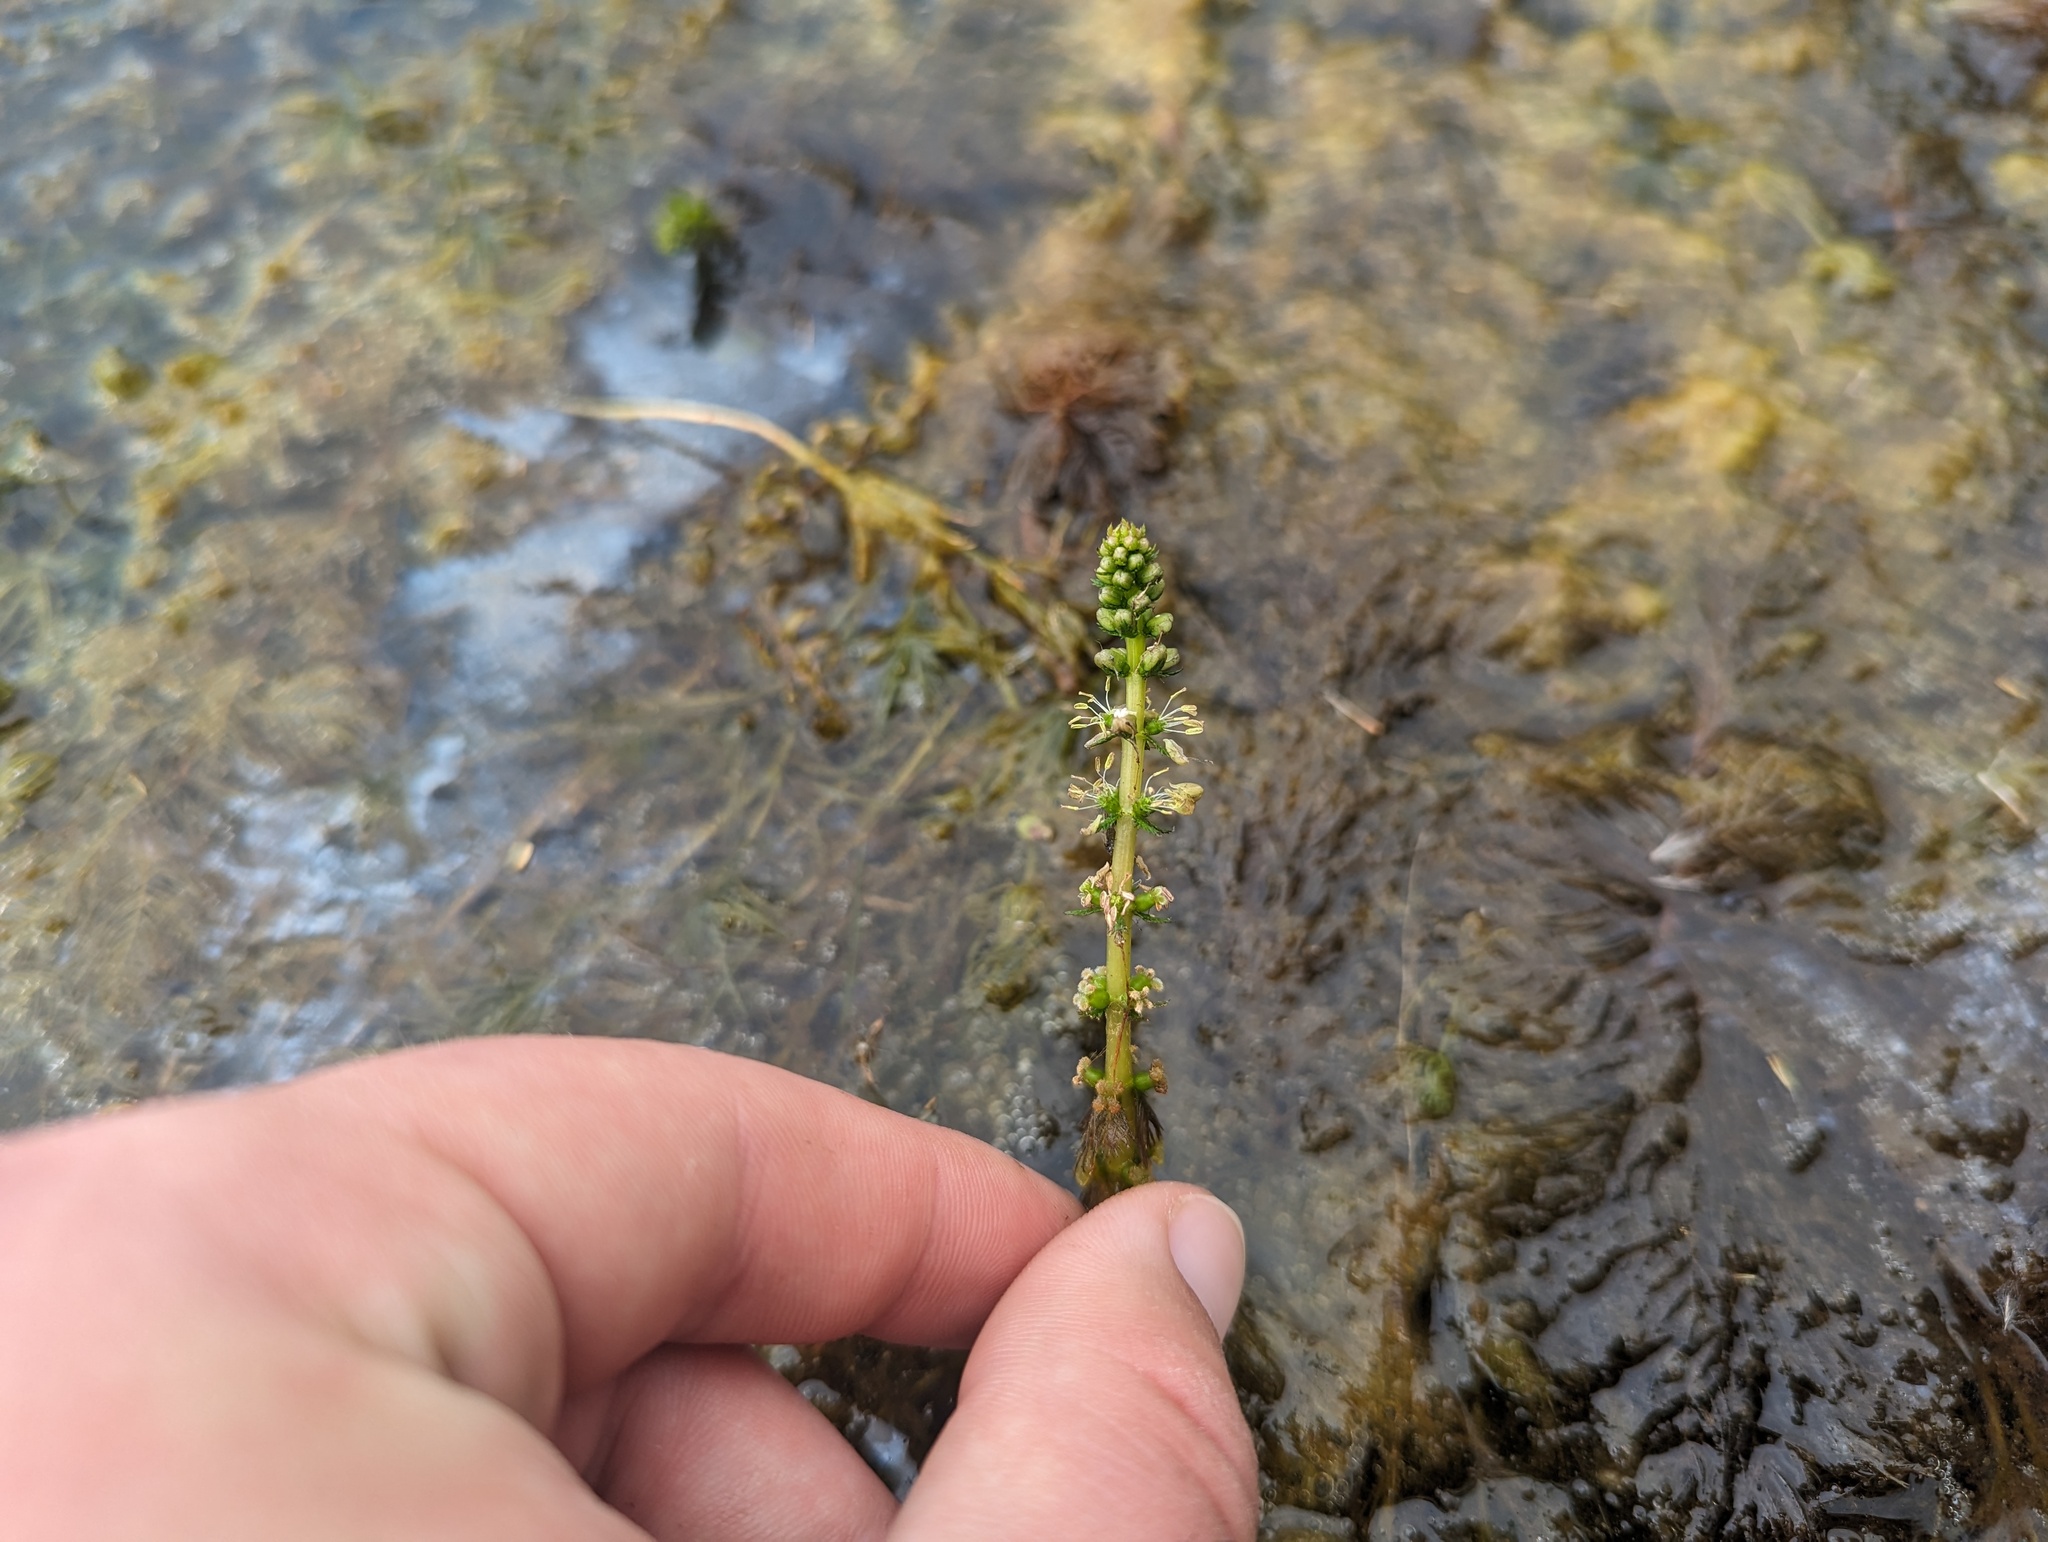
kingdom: Plantae
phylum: Tracheophyta
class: Magnoliopsida
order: Saxifragales
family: Haloragaceae
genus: Myriophyllum
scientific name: Myriophyllum sibiricum
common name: Siberian water-milfoil
